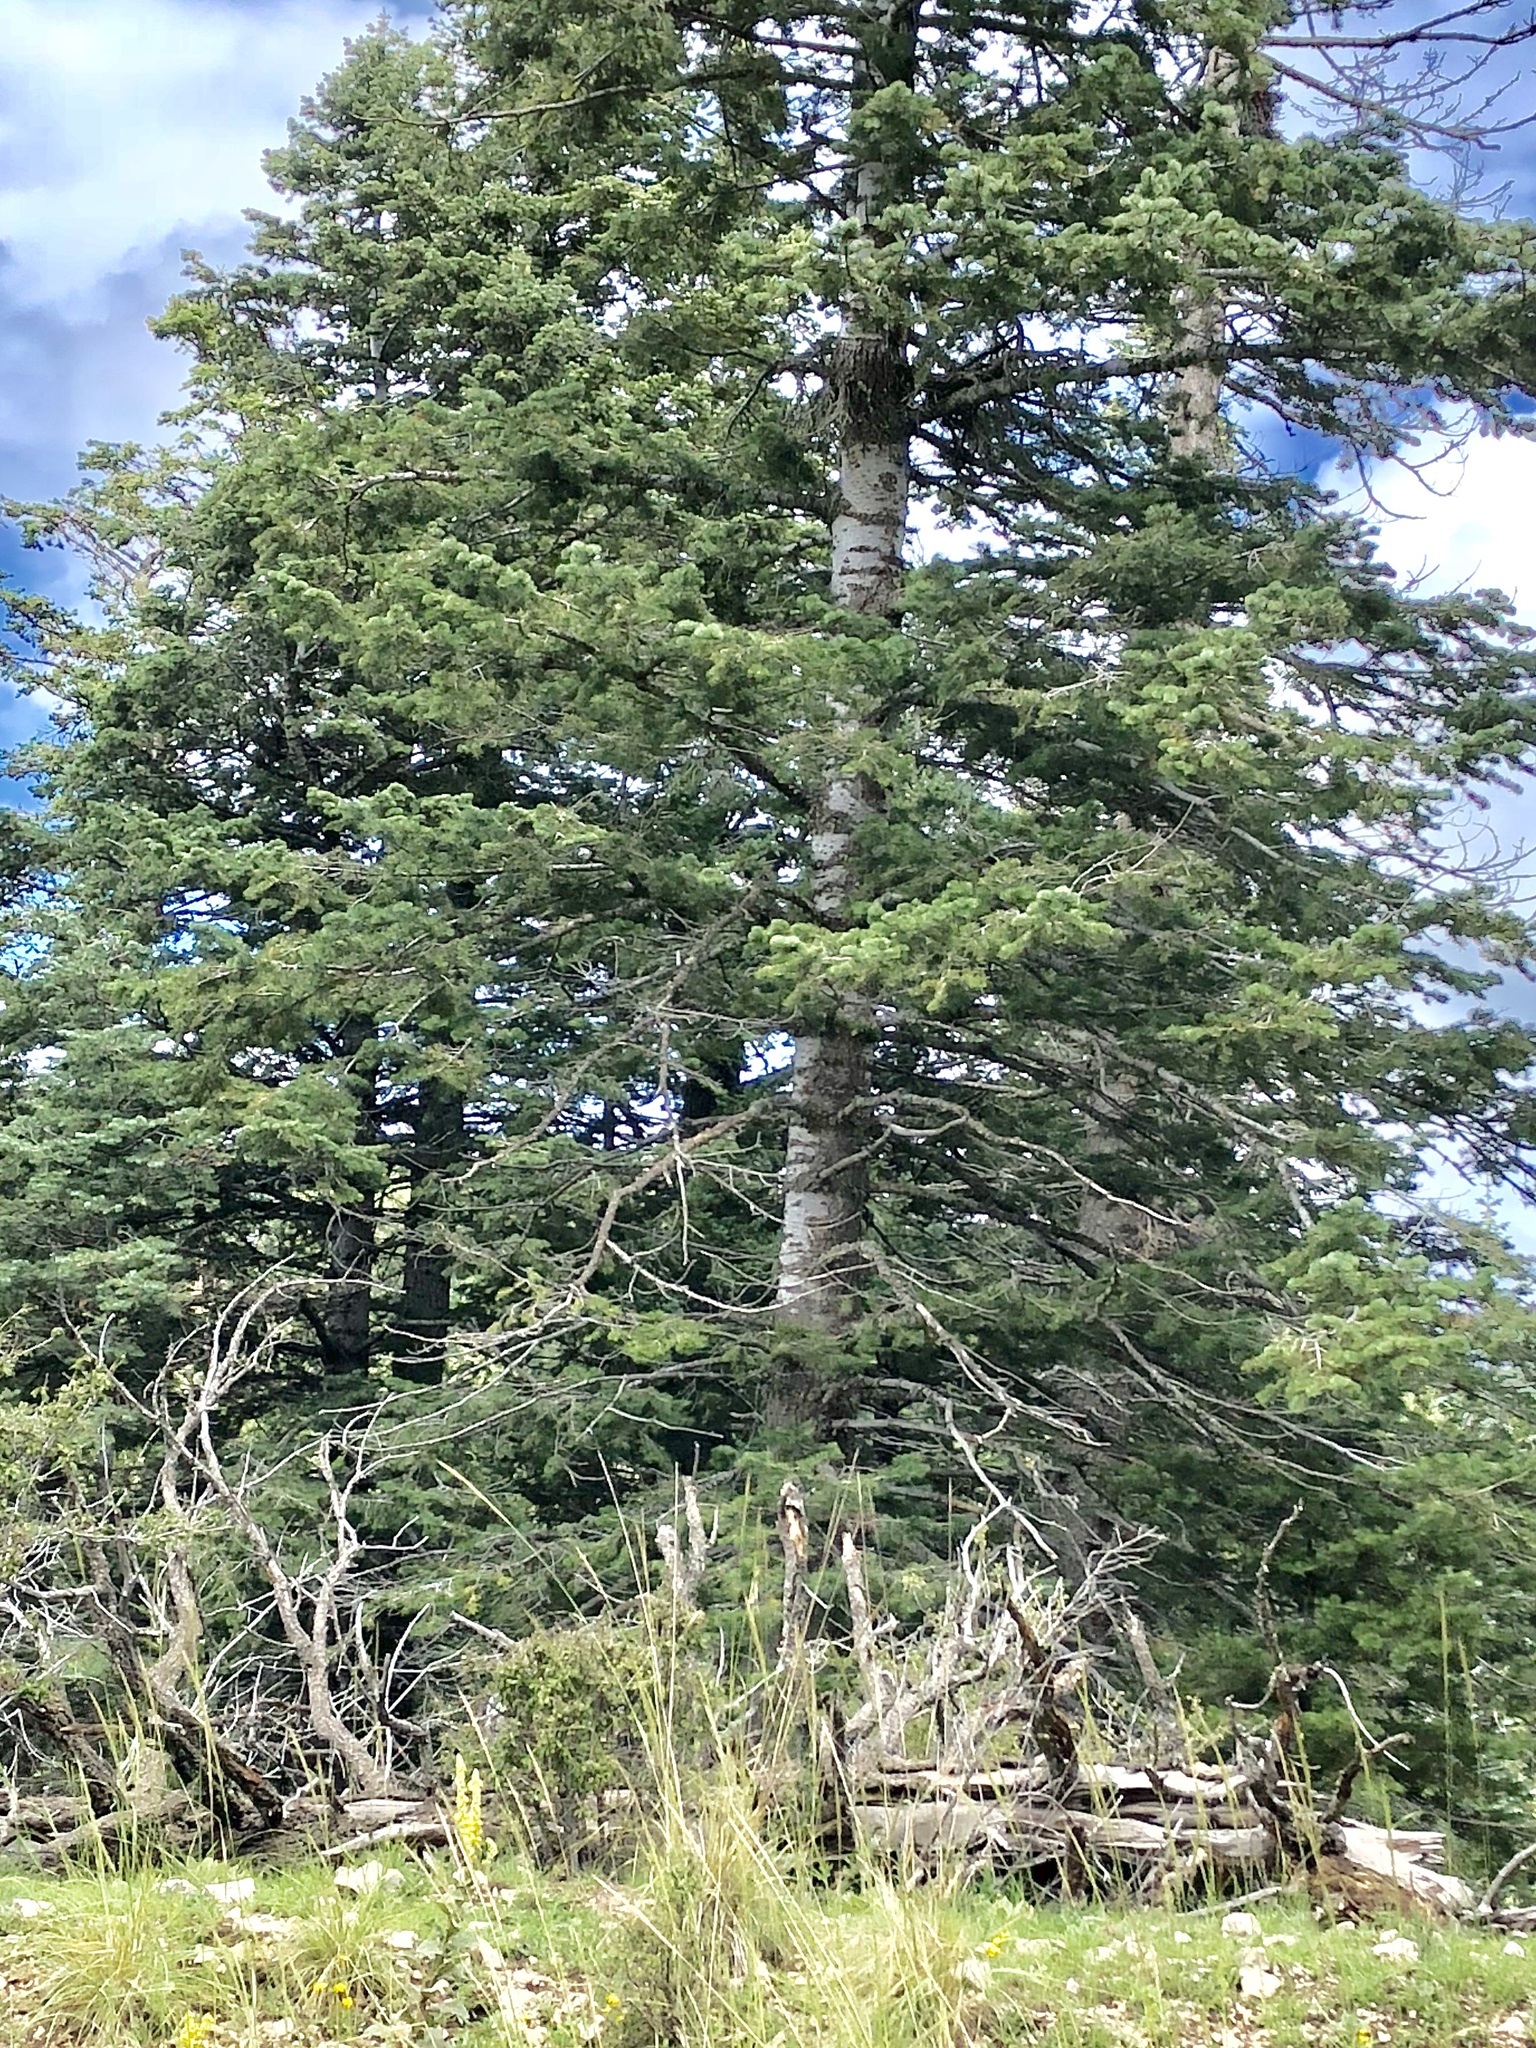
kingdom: Plantae
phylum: Tracheophyta
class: Pinopsida
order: Pinales
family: Pinaceae
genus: Abies
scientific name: Abies concolor
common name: Colorado fir
